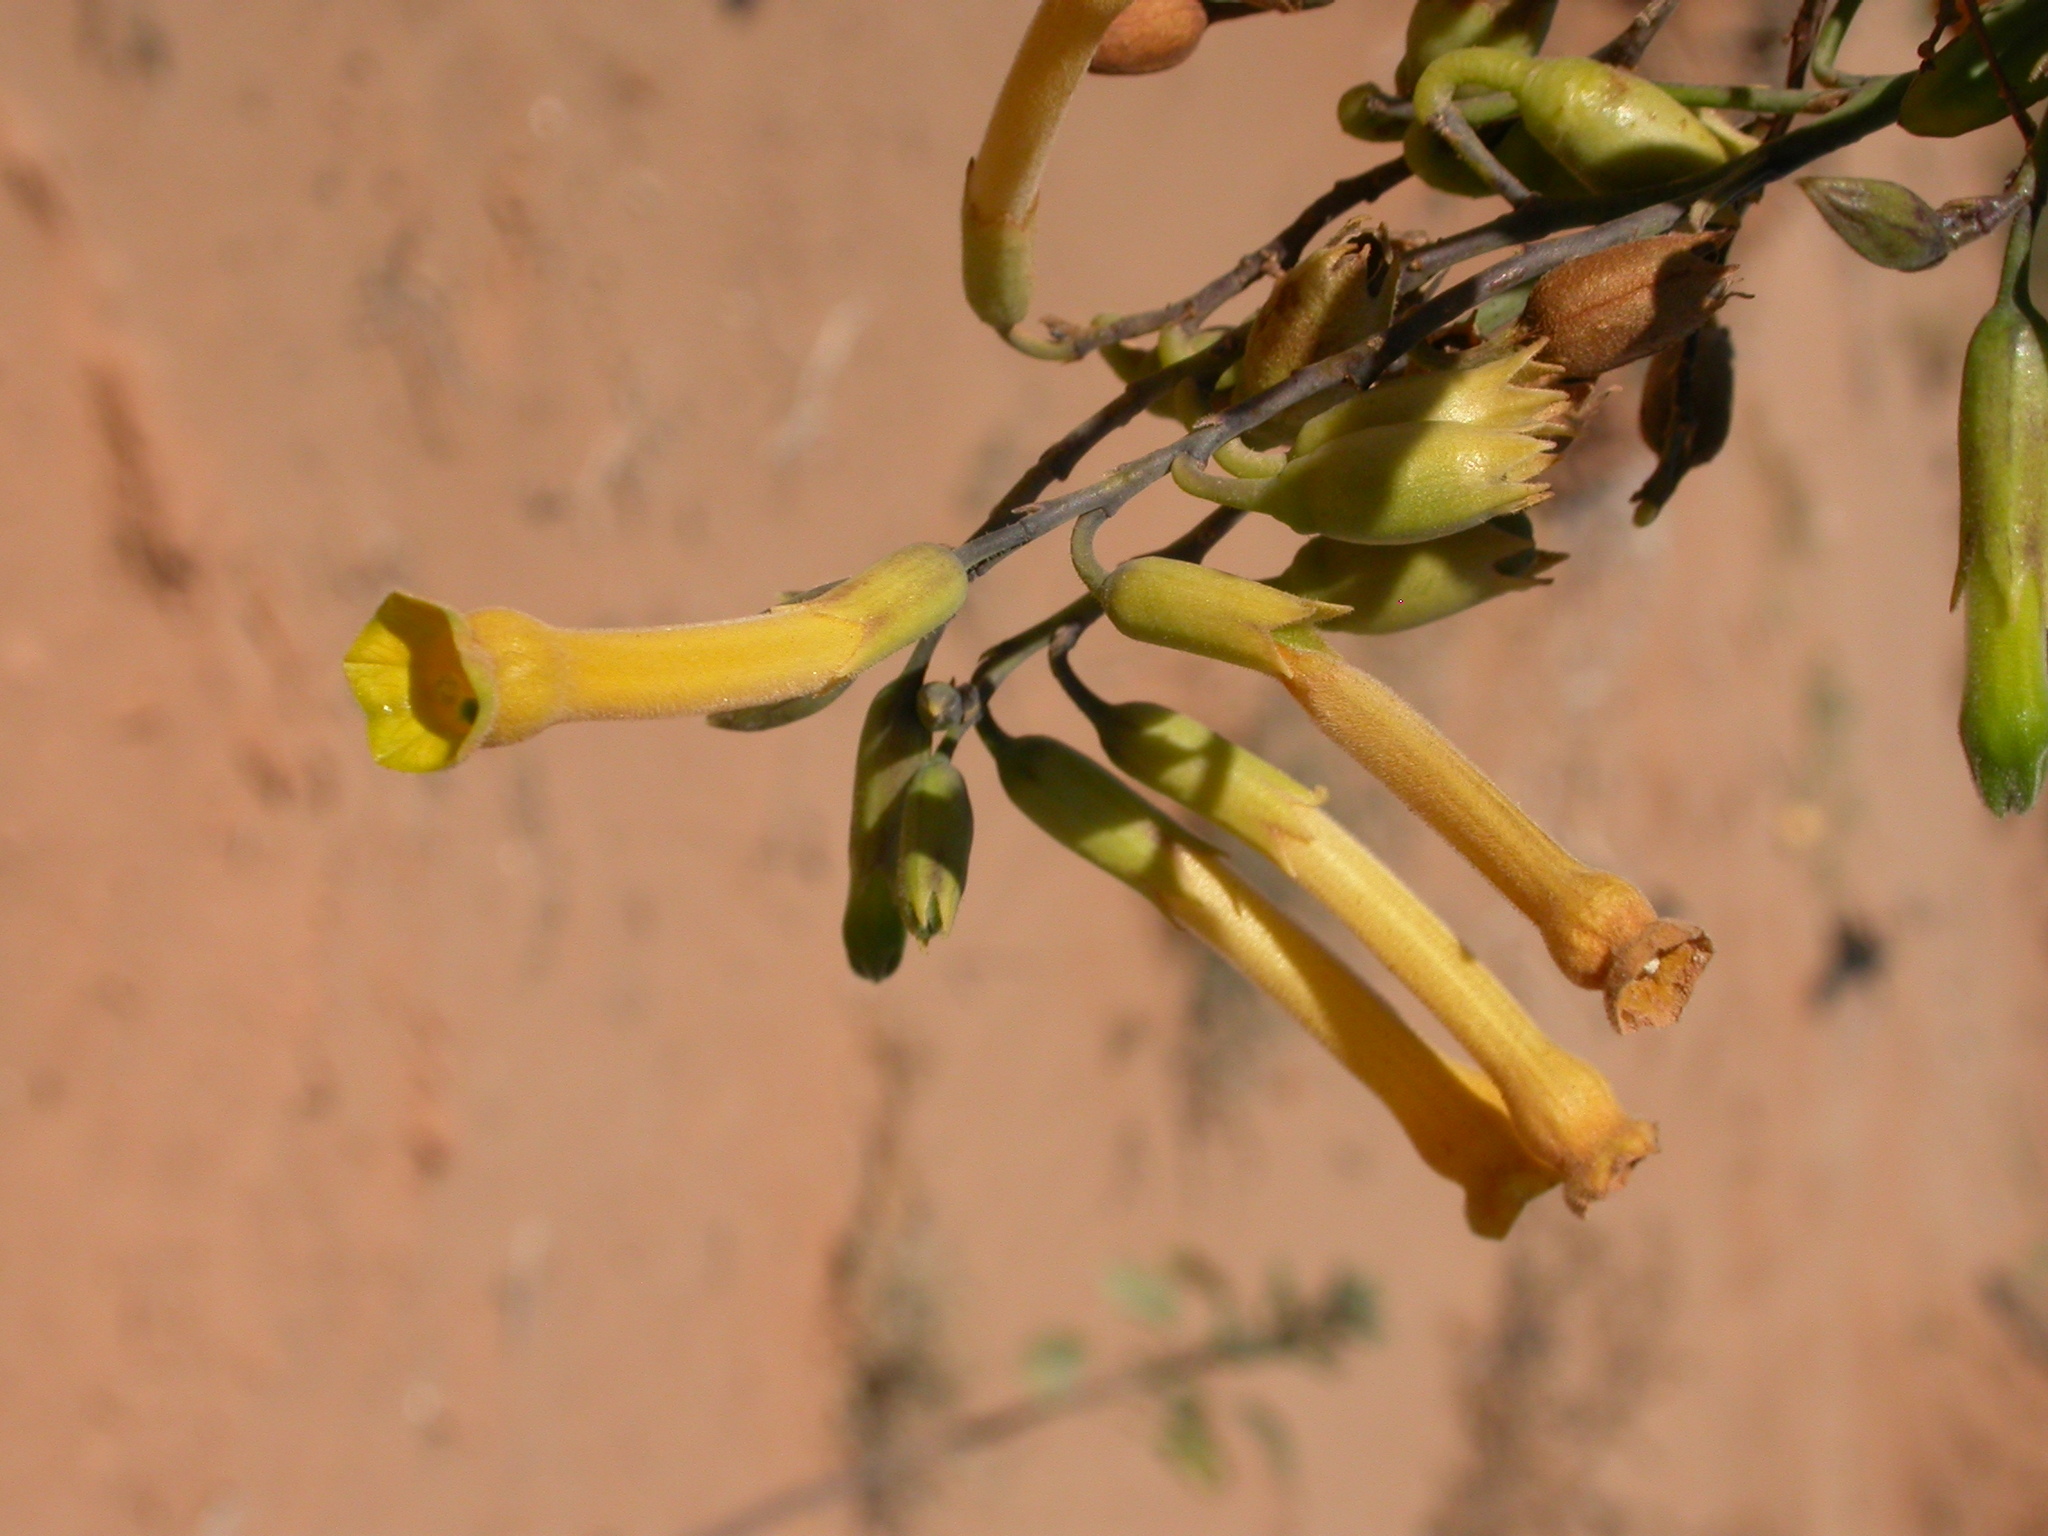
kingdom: Plantae
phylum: Tracheophyta
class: Magnoliopsida
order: Solanales
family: Solanaceae
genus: Nicotiana
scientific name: Nicotiana glauca
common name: Tree tobacco
